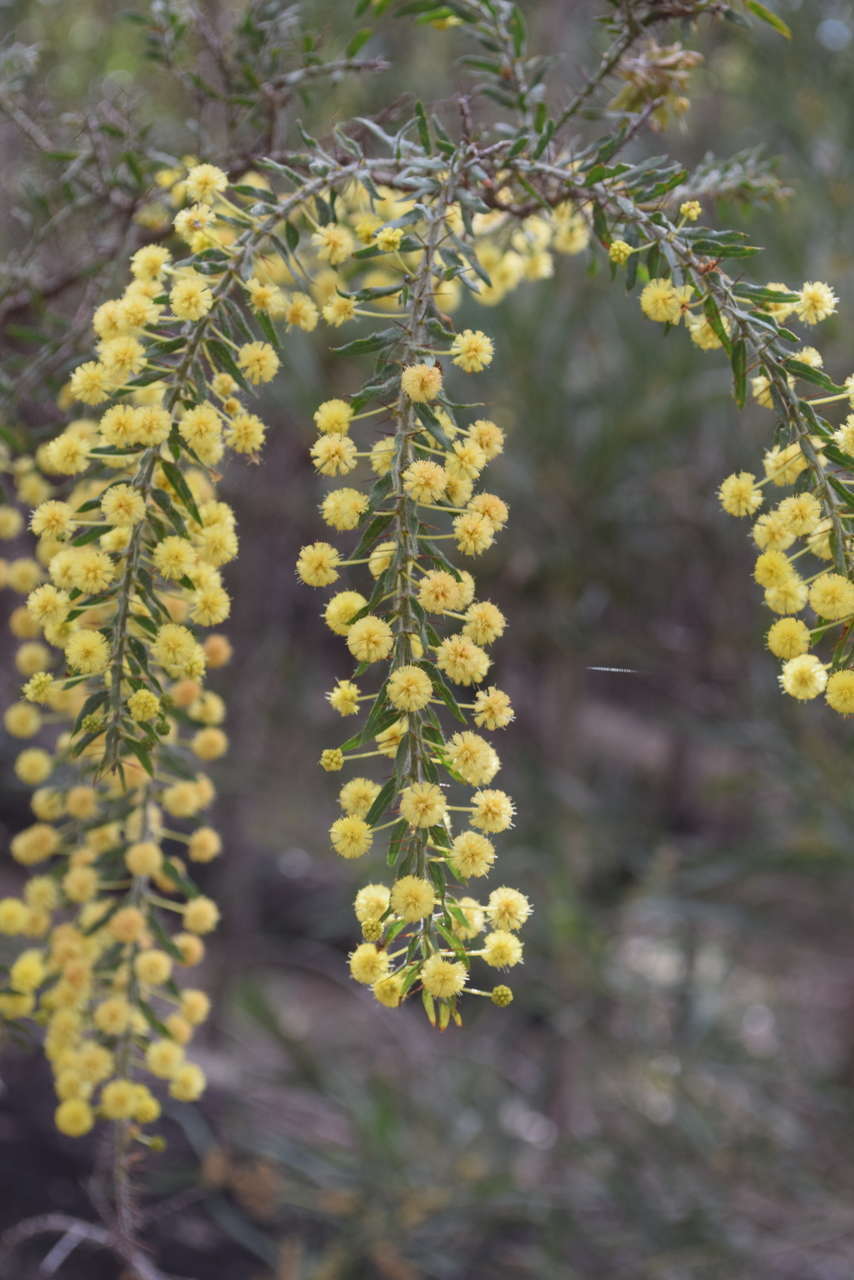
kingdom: Plantae
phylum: Tracheophyta
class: Magnoliopsida
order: Fabales
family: Fabaceae
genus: Acacia
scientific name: Acacia paradoxa
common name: Paradox acacia
